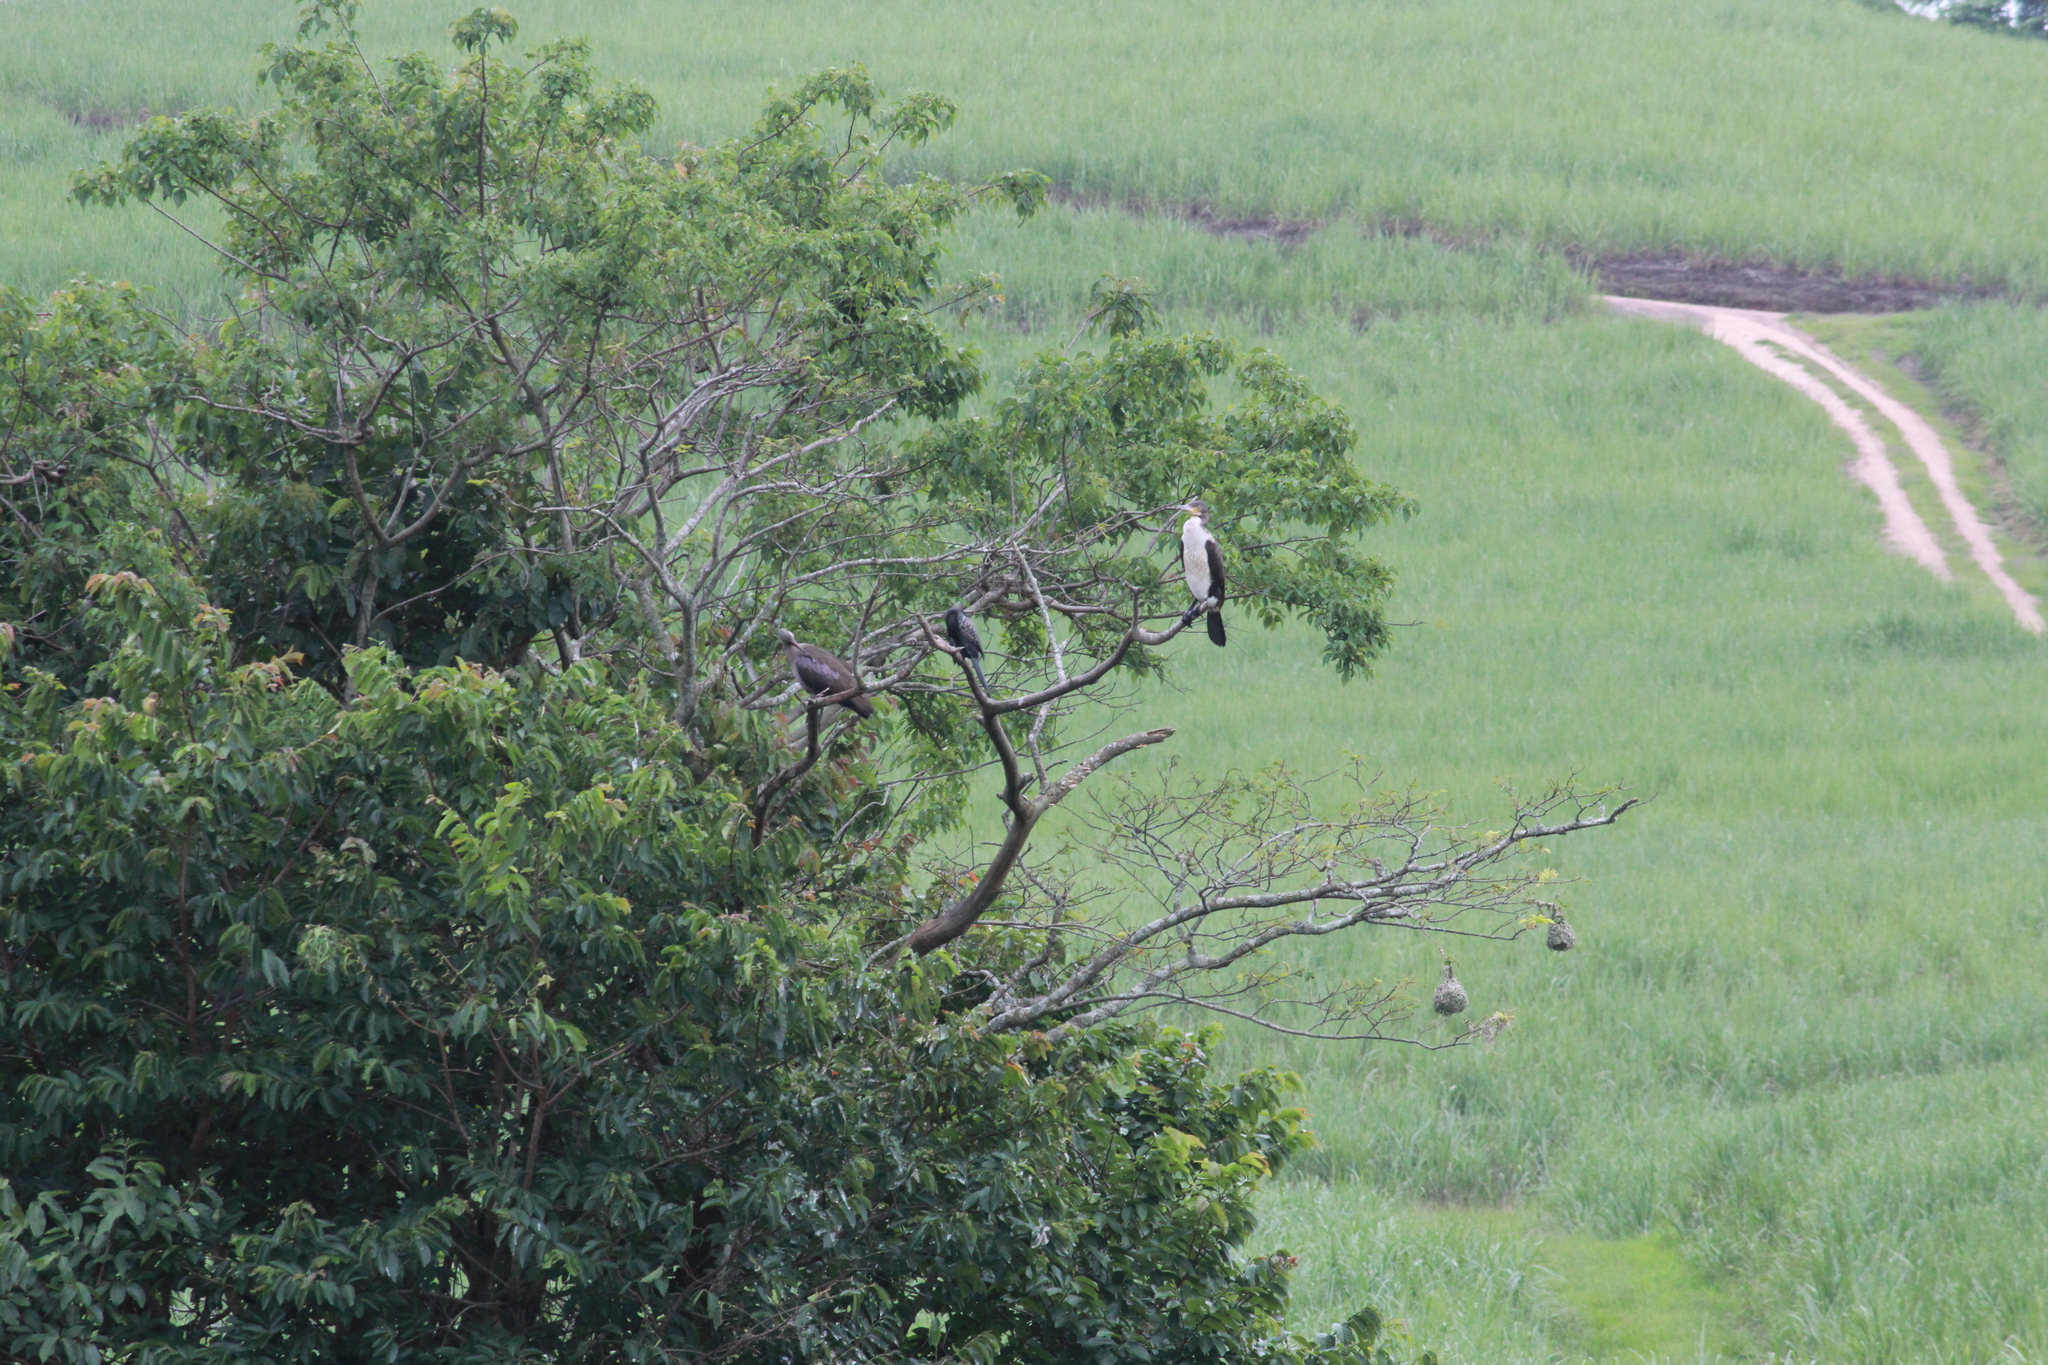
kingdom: Animalia
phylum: Chordata
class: Aves
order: Suliformes
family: Phalacrocoracidae
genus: Microcarbo
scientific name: Microcarbo africanus
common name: Long-tailed cormorant
